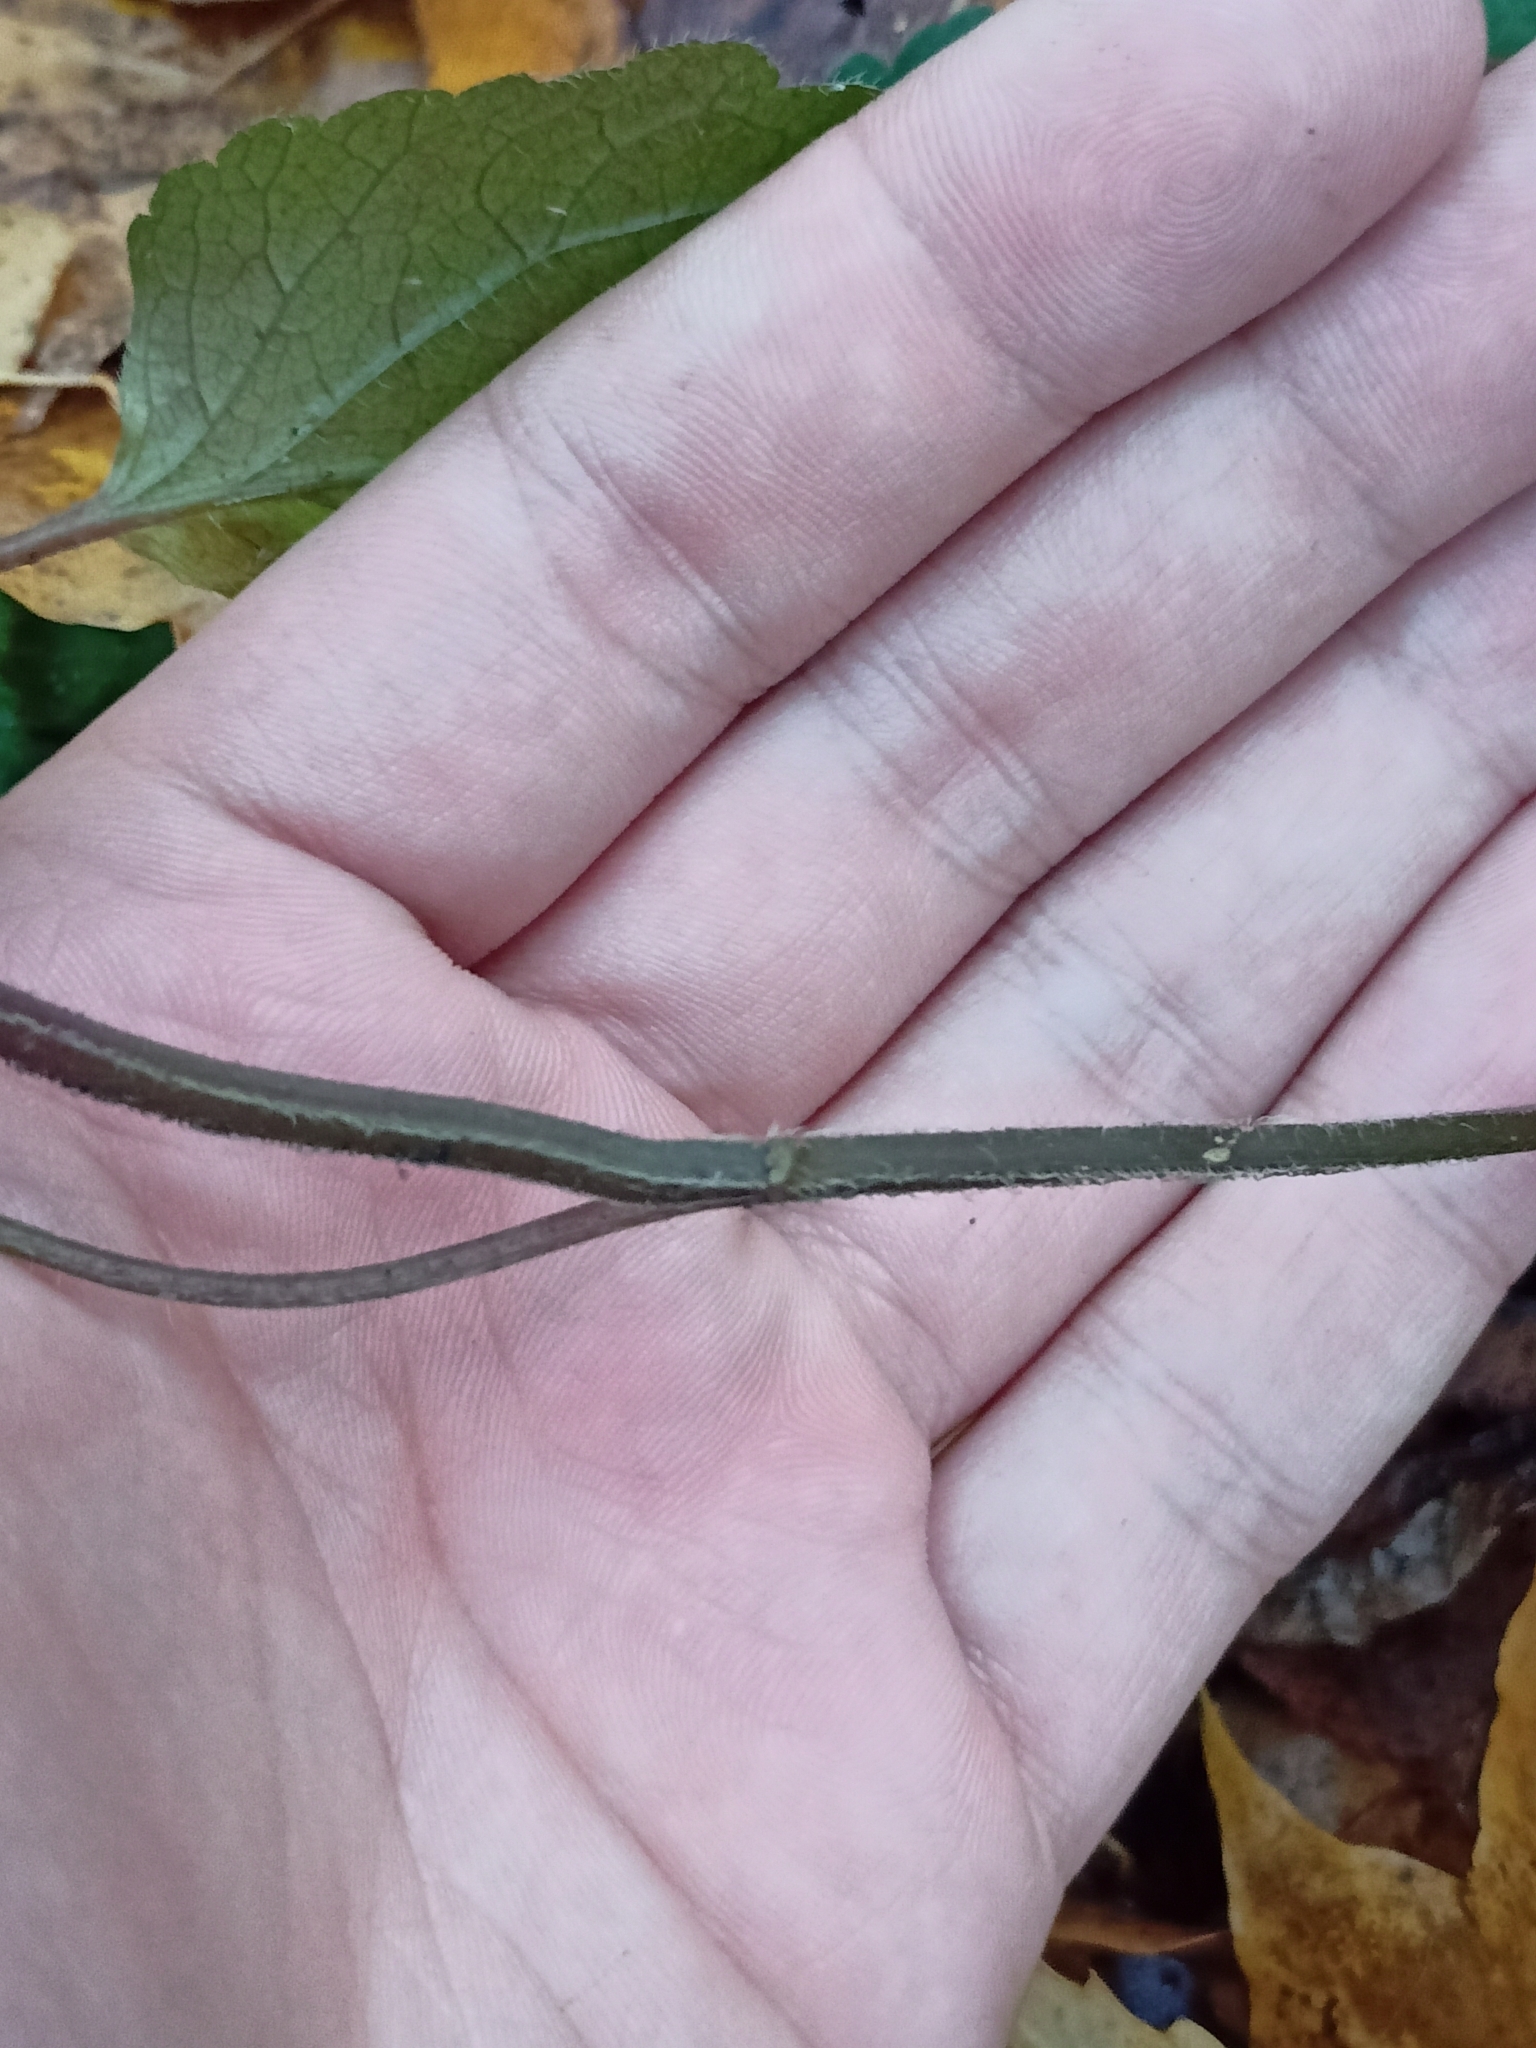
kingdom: Plantae
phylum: Tracheophyta
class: Magnoliopsida
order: Lamiales
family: Lamiaceae
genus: Lamium
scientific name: Lamium galeobdolon
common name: Yellow archangel
